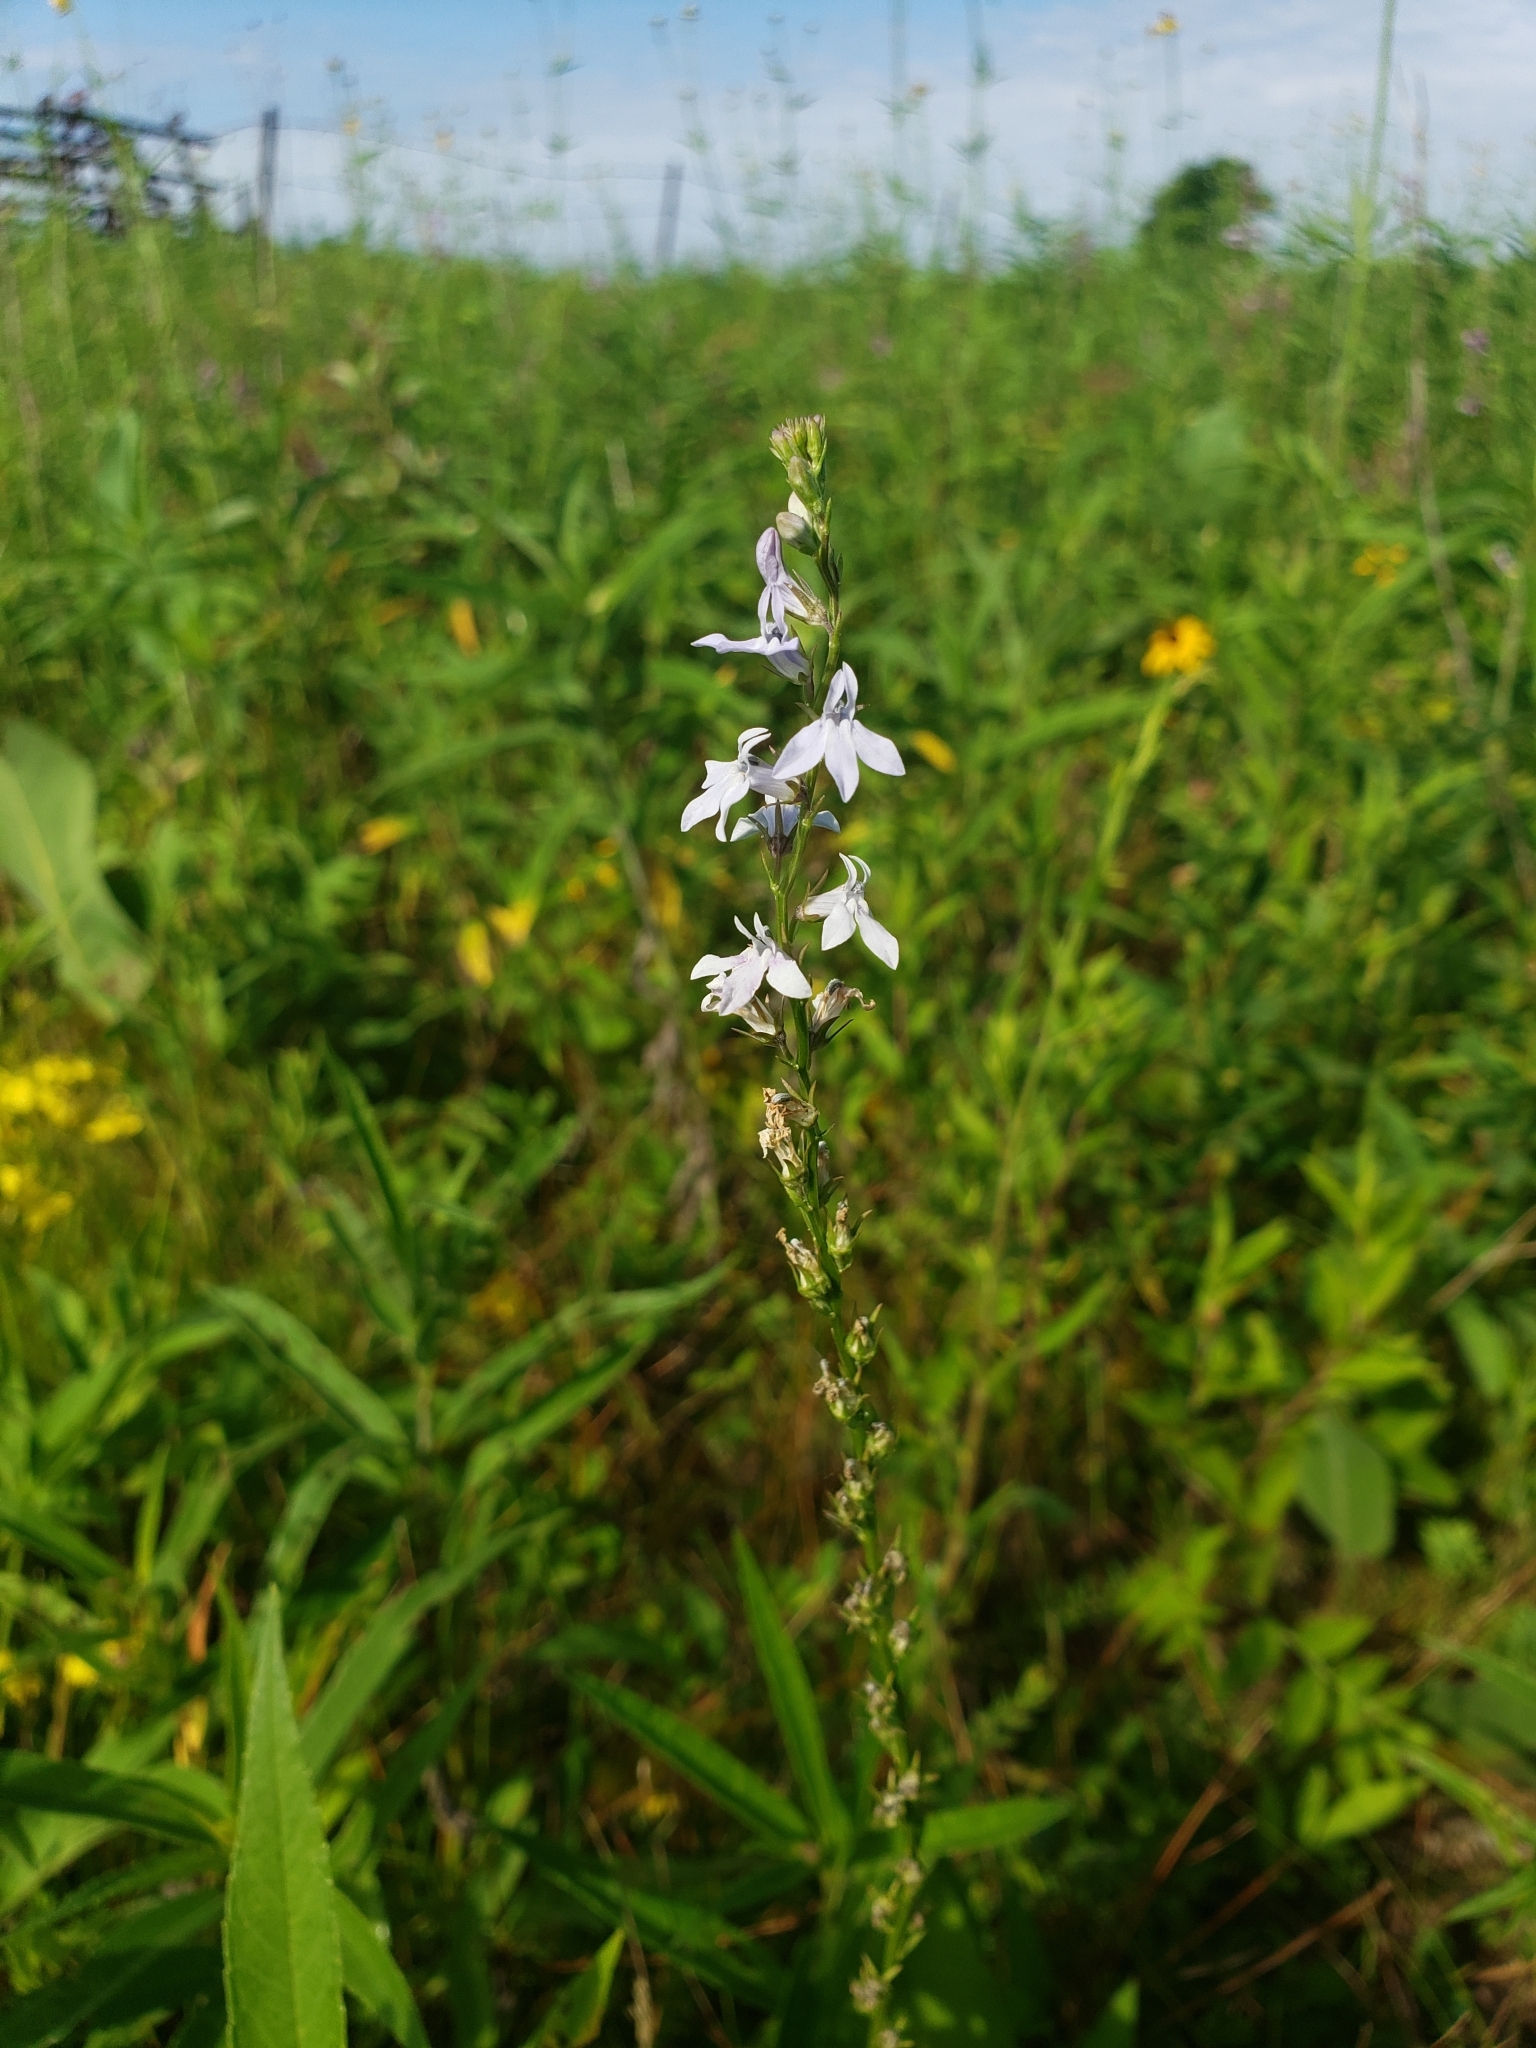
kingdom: Plantae
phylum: Tracheophyta
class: Magnoliopsida
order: Asterales
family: Campanulaceae
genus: Lobelia
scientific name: Lobelia spicata
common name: Pale-spike lobelia
